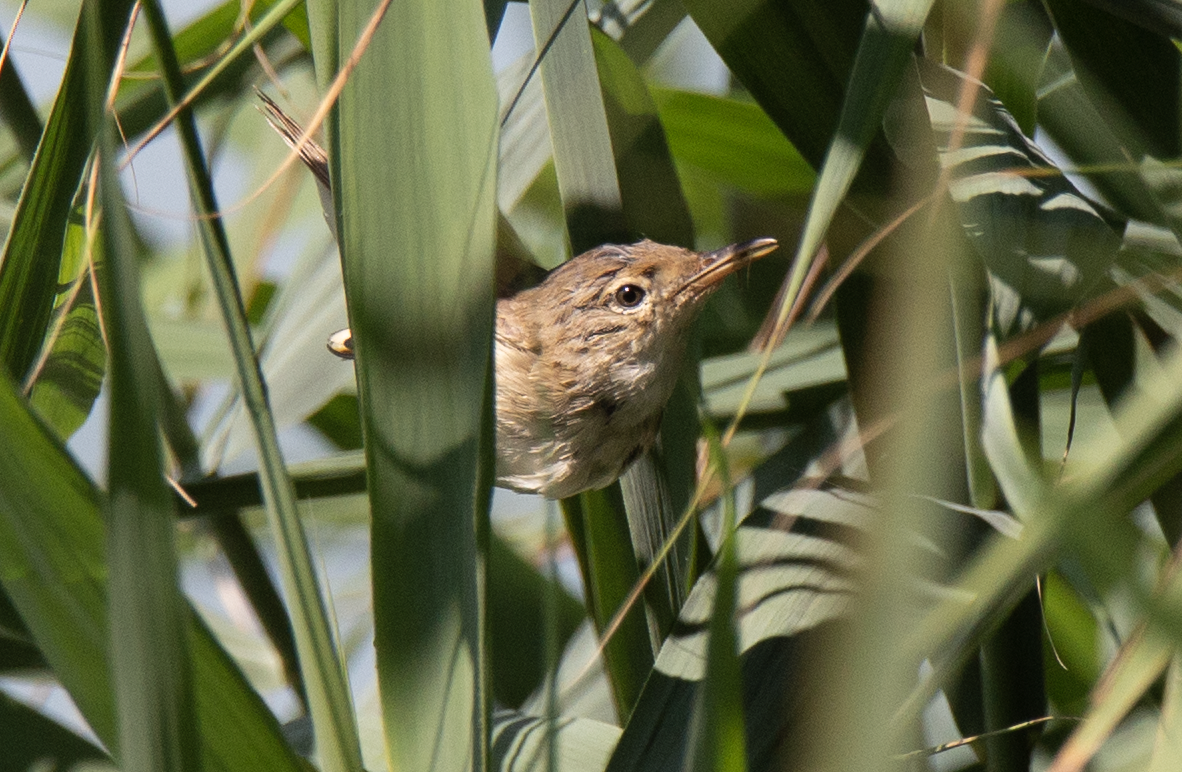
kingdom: Animalia
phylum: Chordata
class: Aves
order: Passeriformes
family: Acrocephalidae
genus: Acrocephalus
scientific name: Acrocephalus scirpaceus
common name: Eurasian reed warbler
